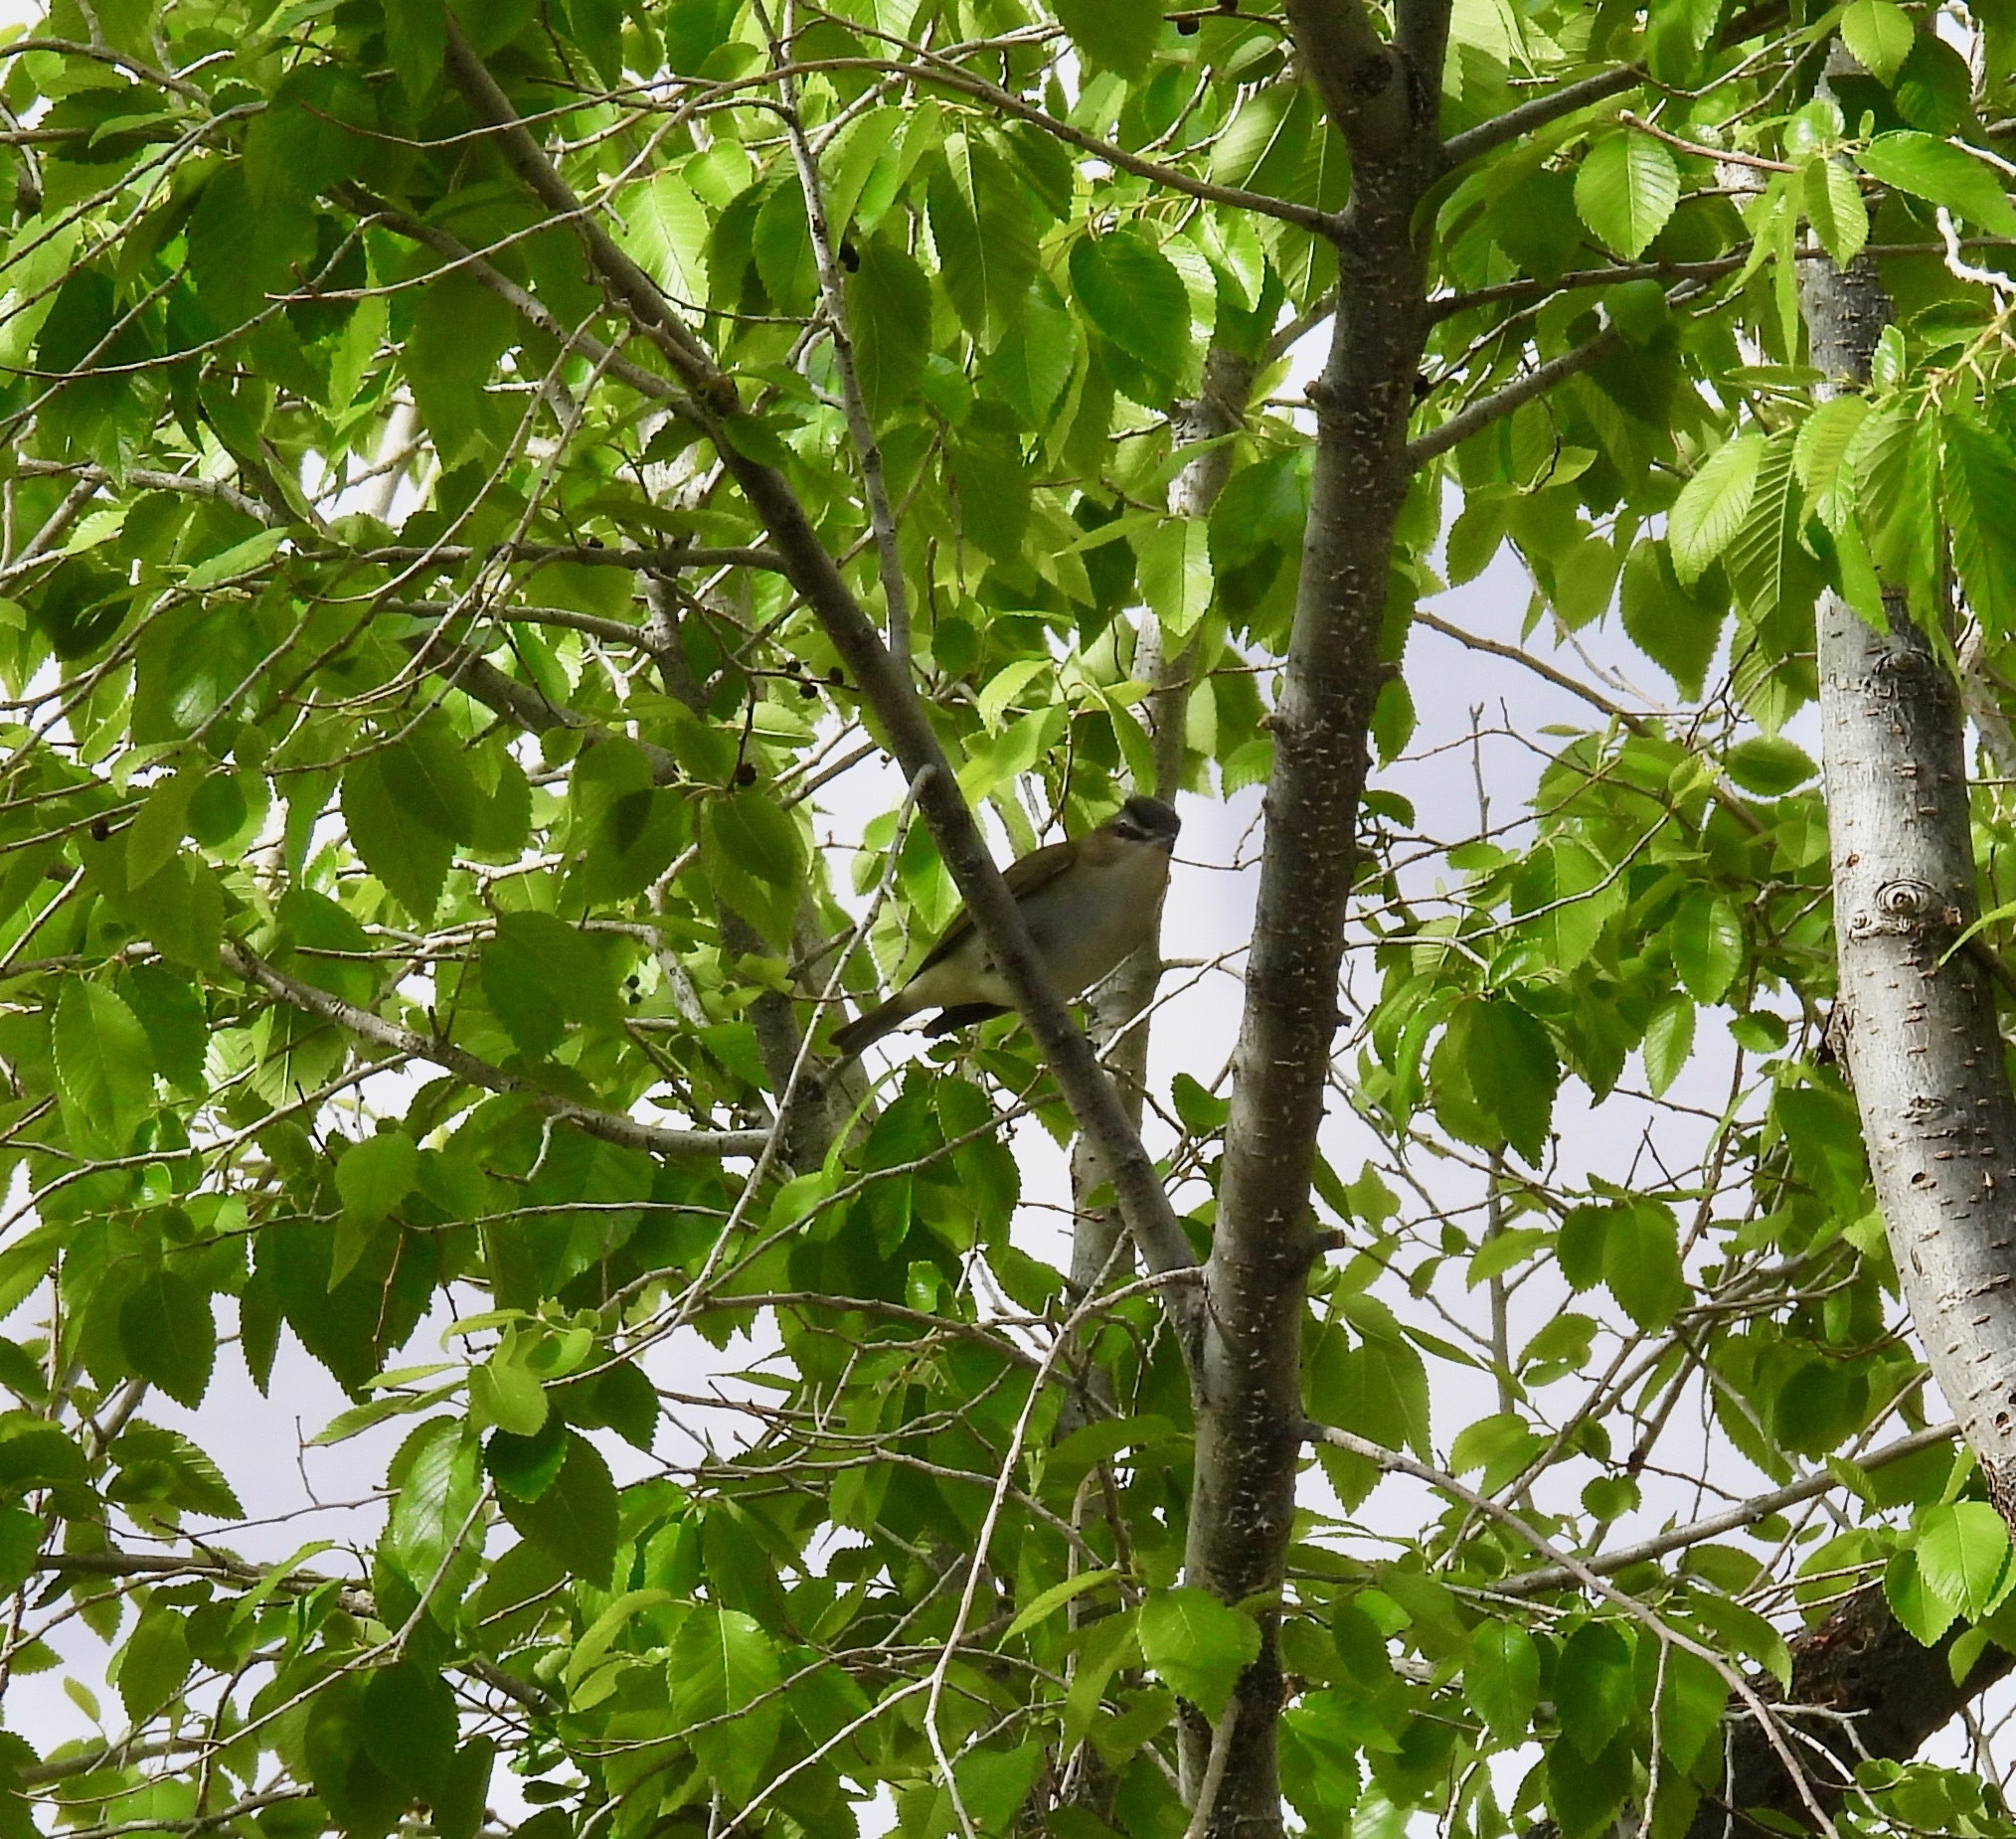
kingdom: Animalia
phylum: Chordata
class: Aves
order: Passeriformes
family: Vireonidae
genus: Vireo
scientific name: Vireo olivaceus
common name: Red-eyed vireo
